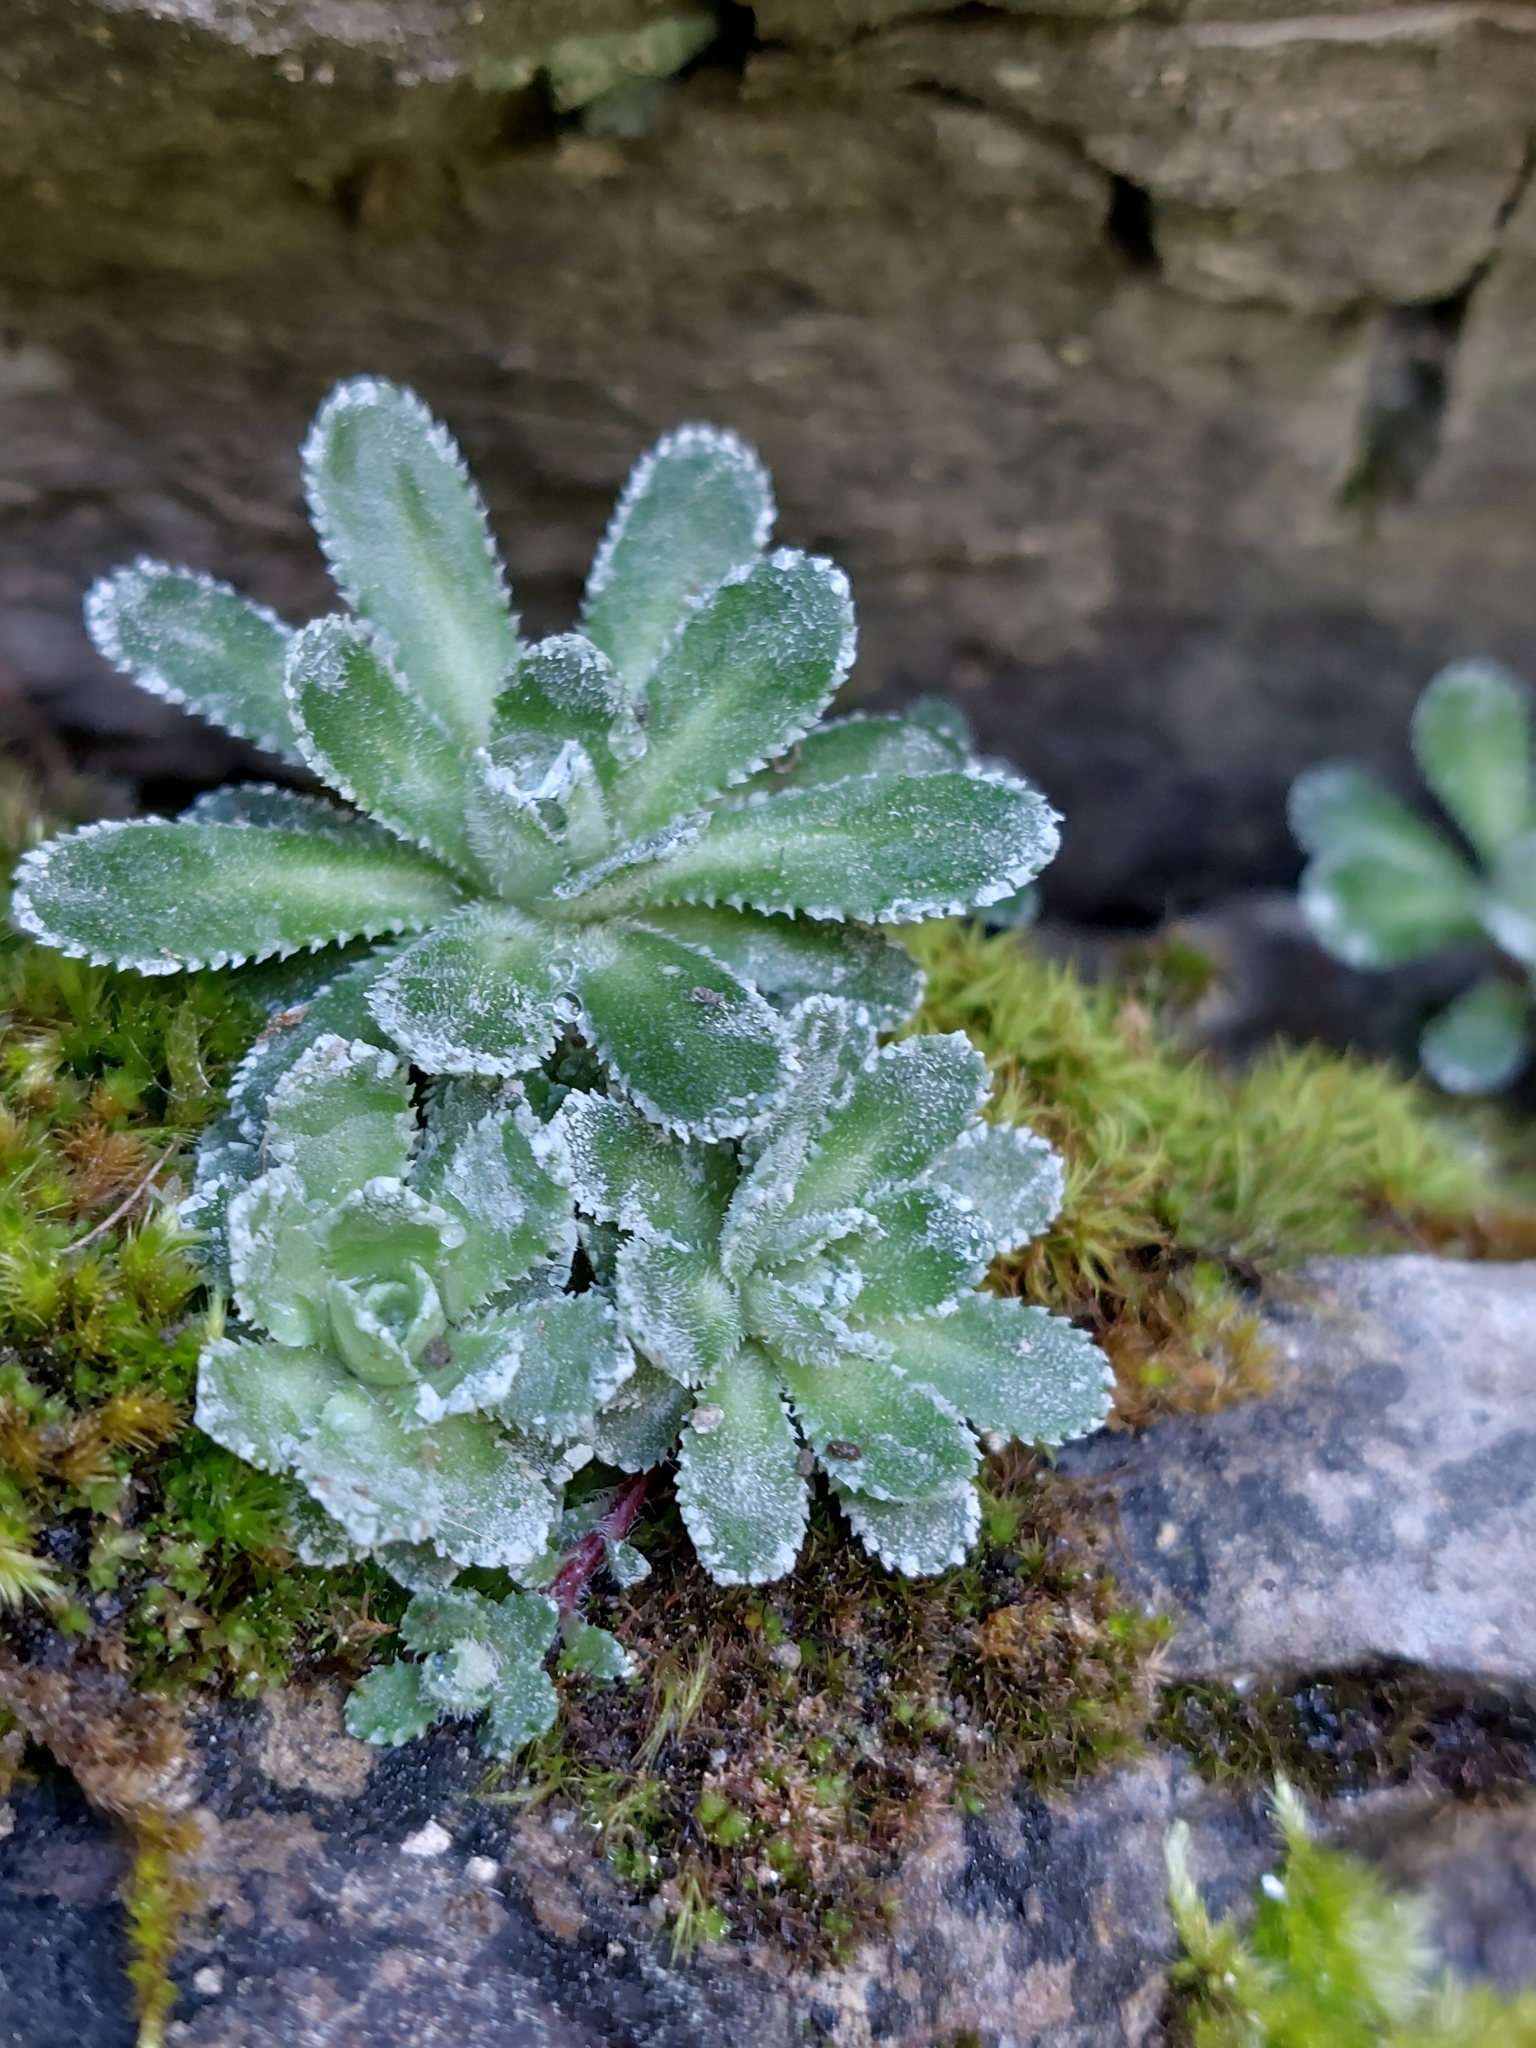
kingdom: Plantae
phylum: Tracheophyta
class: Magnoliopsida
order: Saxifragales
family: Saxifragaceae
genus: Saxifraga
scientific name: Saxifraga paniculata
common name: Livelong saxifrage
